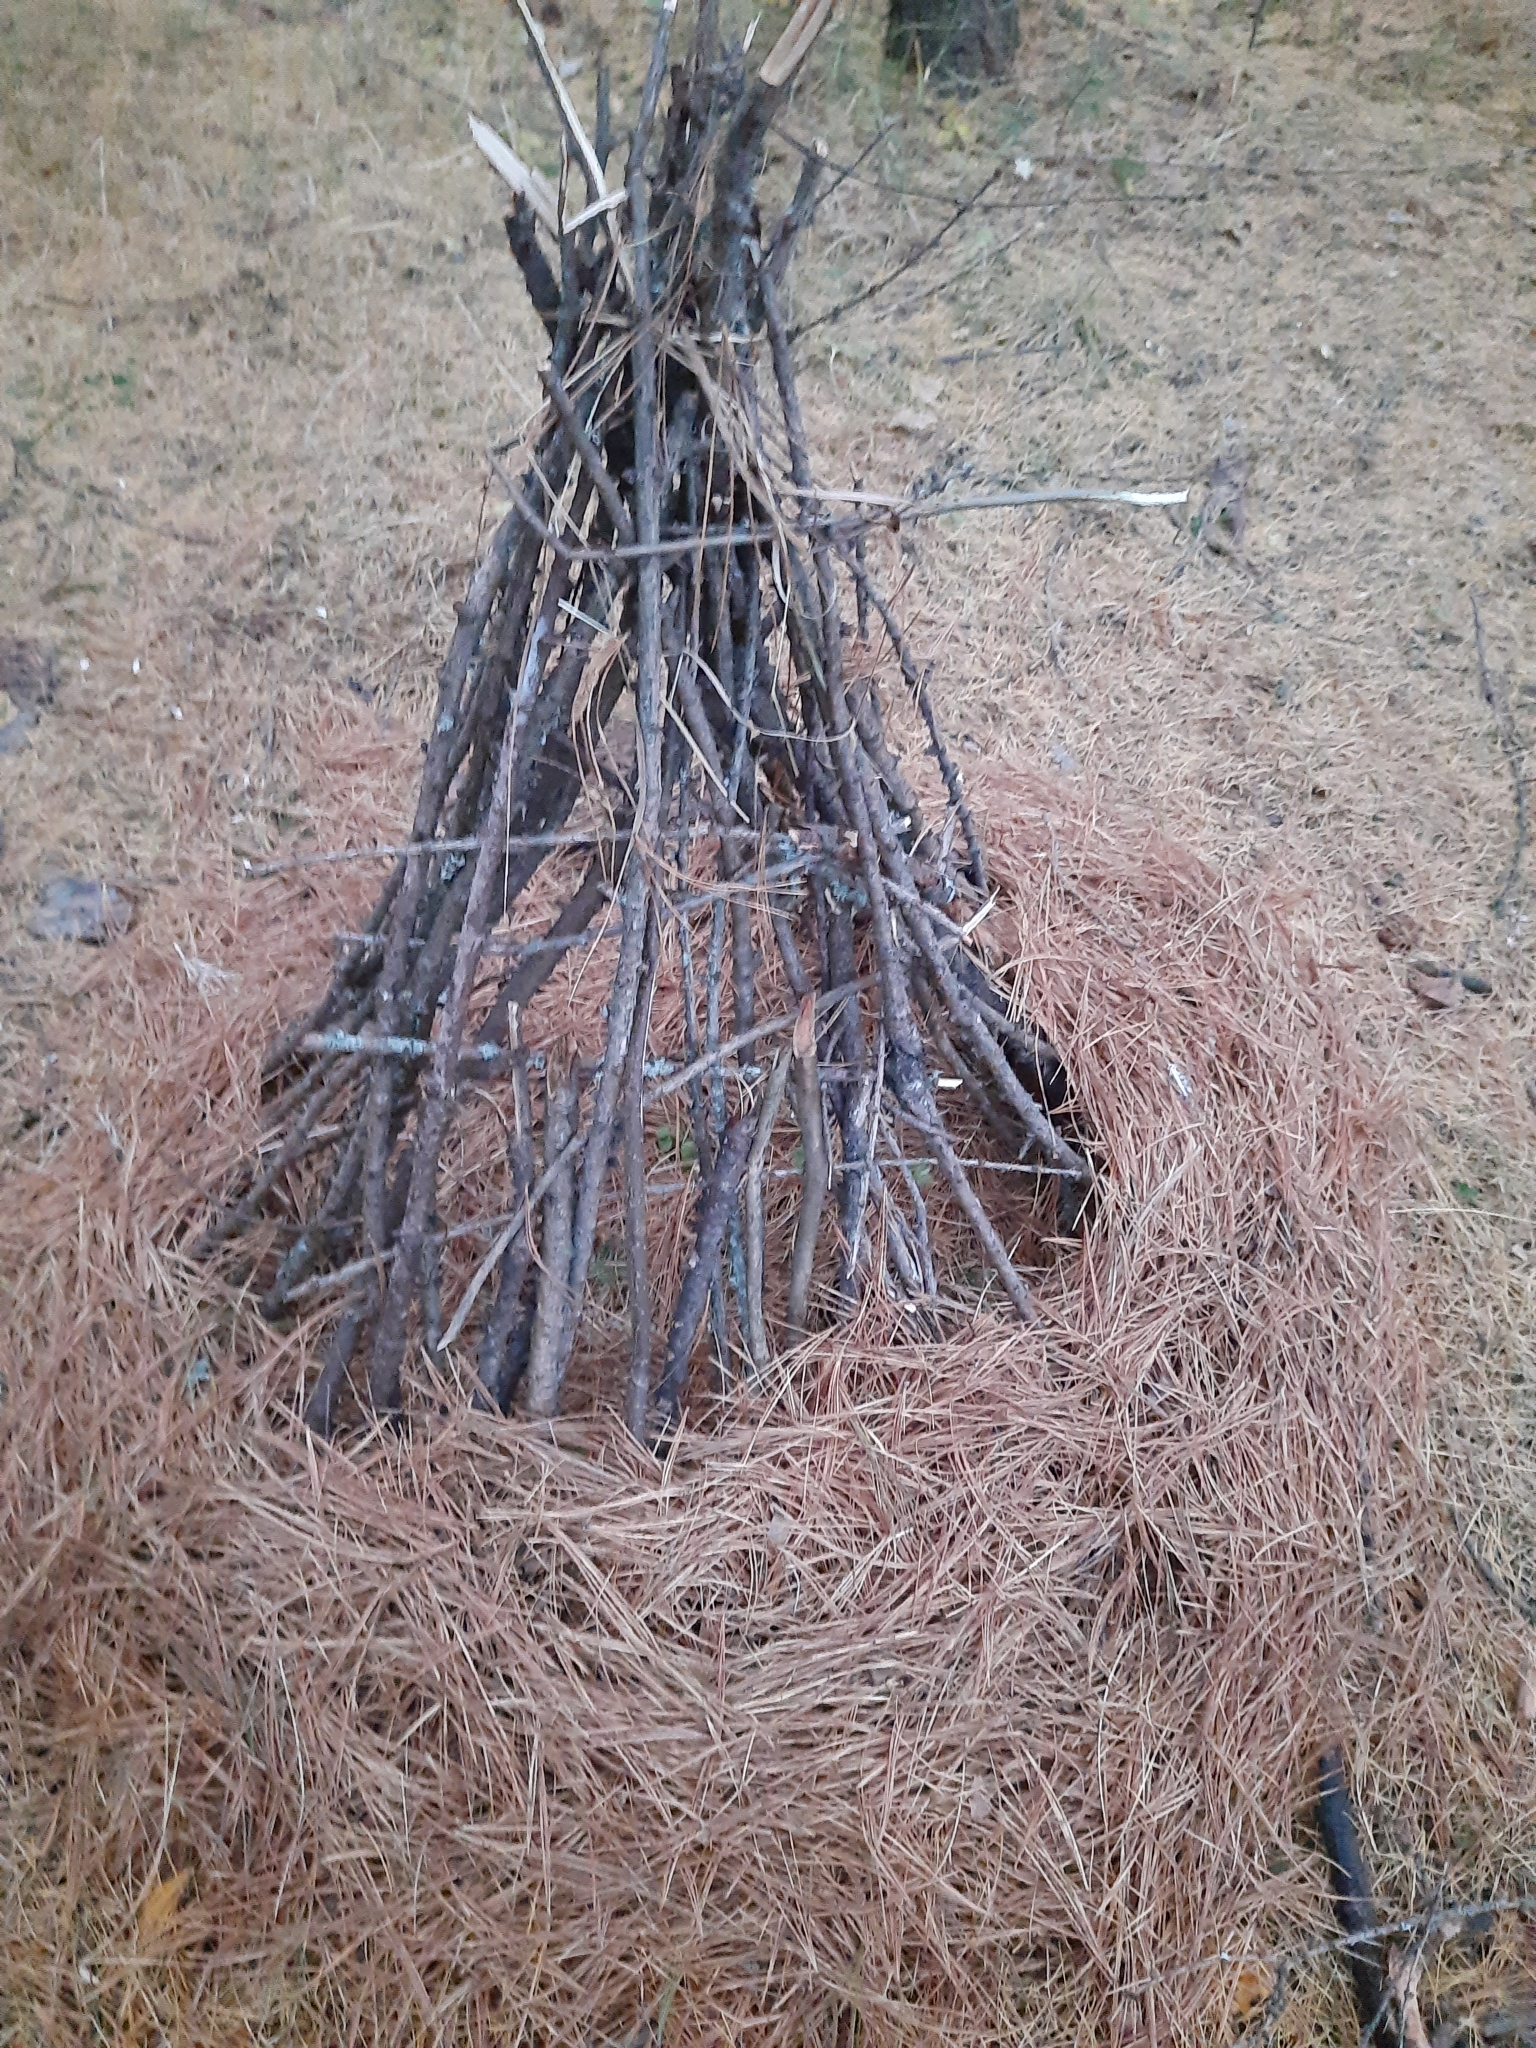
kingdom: Plantae
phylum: Tracheophyta
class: Pinopsida
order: Pinales
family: Pinaceae
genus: Larix
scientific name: Larix sibirica
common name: Siberian larch
